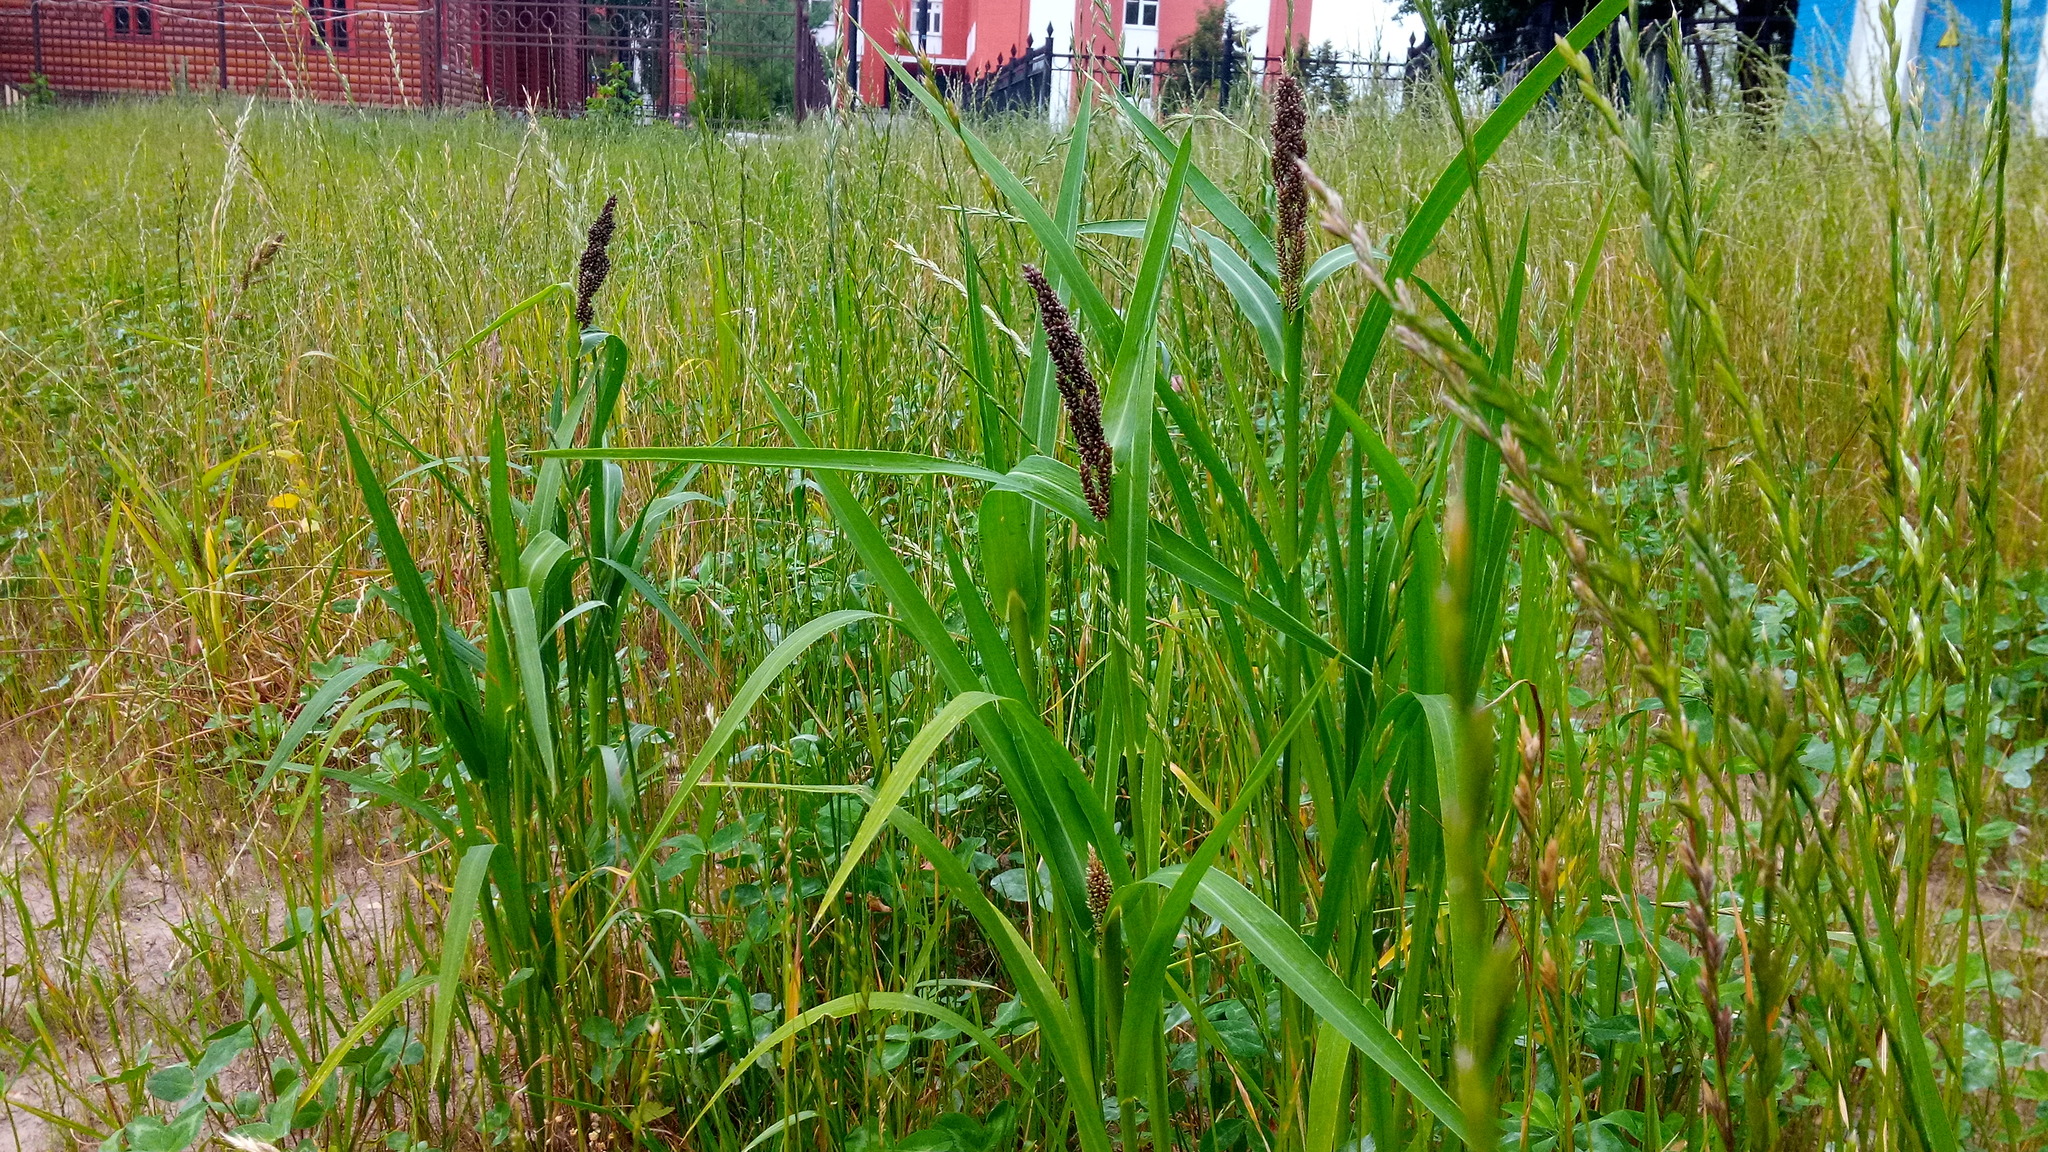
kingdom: Plantae
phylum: Tracheophyta
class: Liliopsida
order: Poales
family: Poaceae
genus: Echinochloa
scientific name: Echinochloa crus-galli
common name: Cockspur
